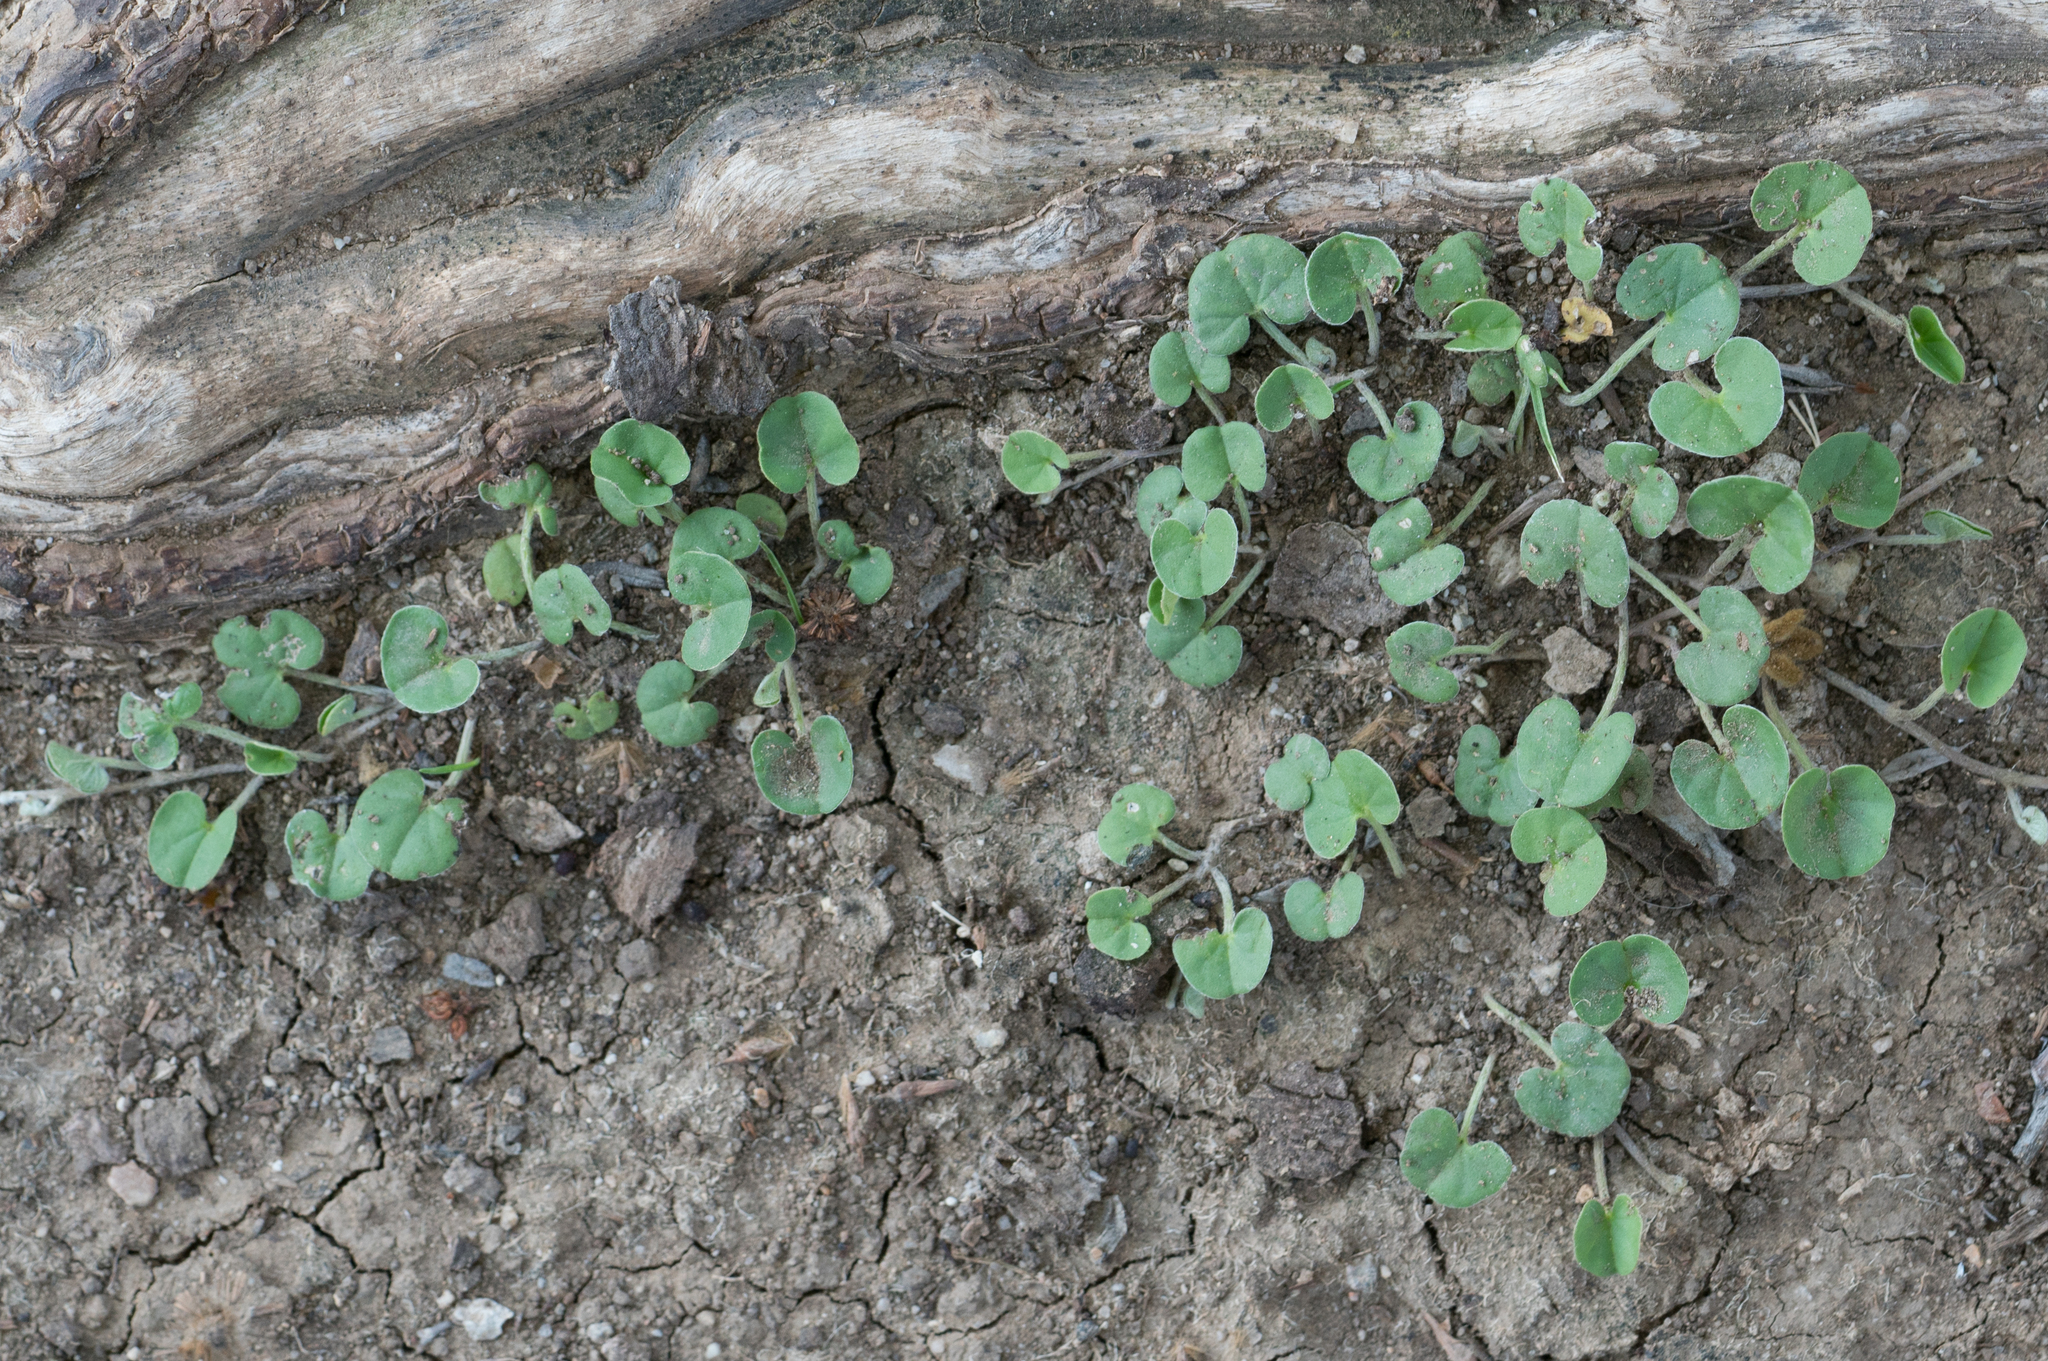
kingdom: Plantae
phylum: Tracheophyta
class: Magnoliopsida
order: Solanales
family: Convolvulaceae
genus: Dichondra
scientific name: Dichondra micrantha
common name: Kidneyweed
